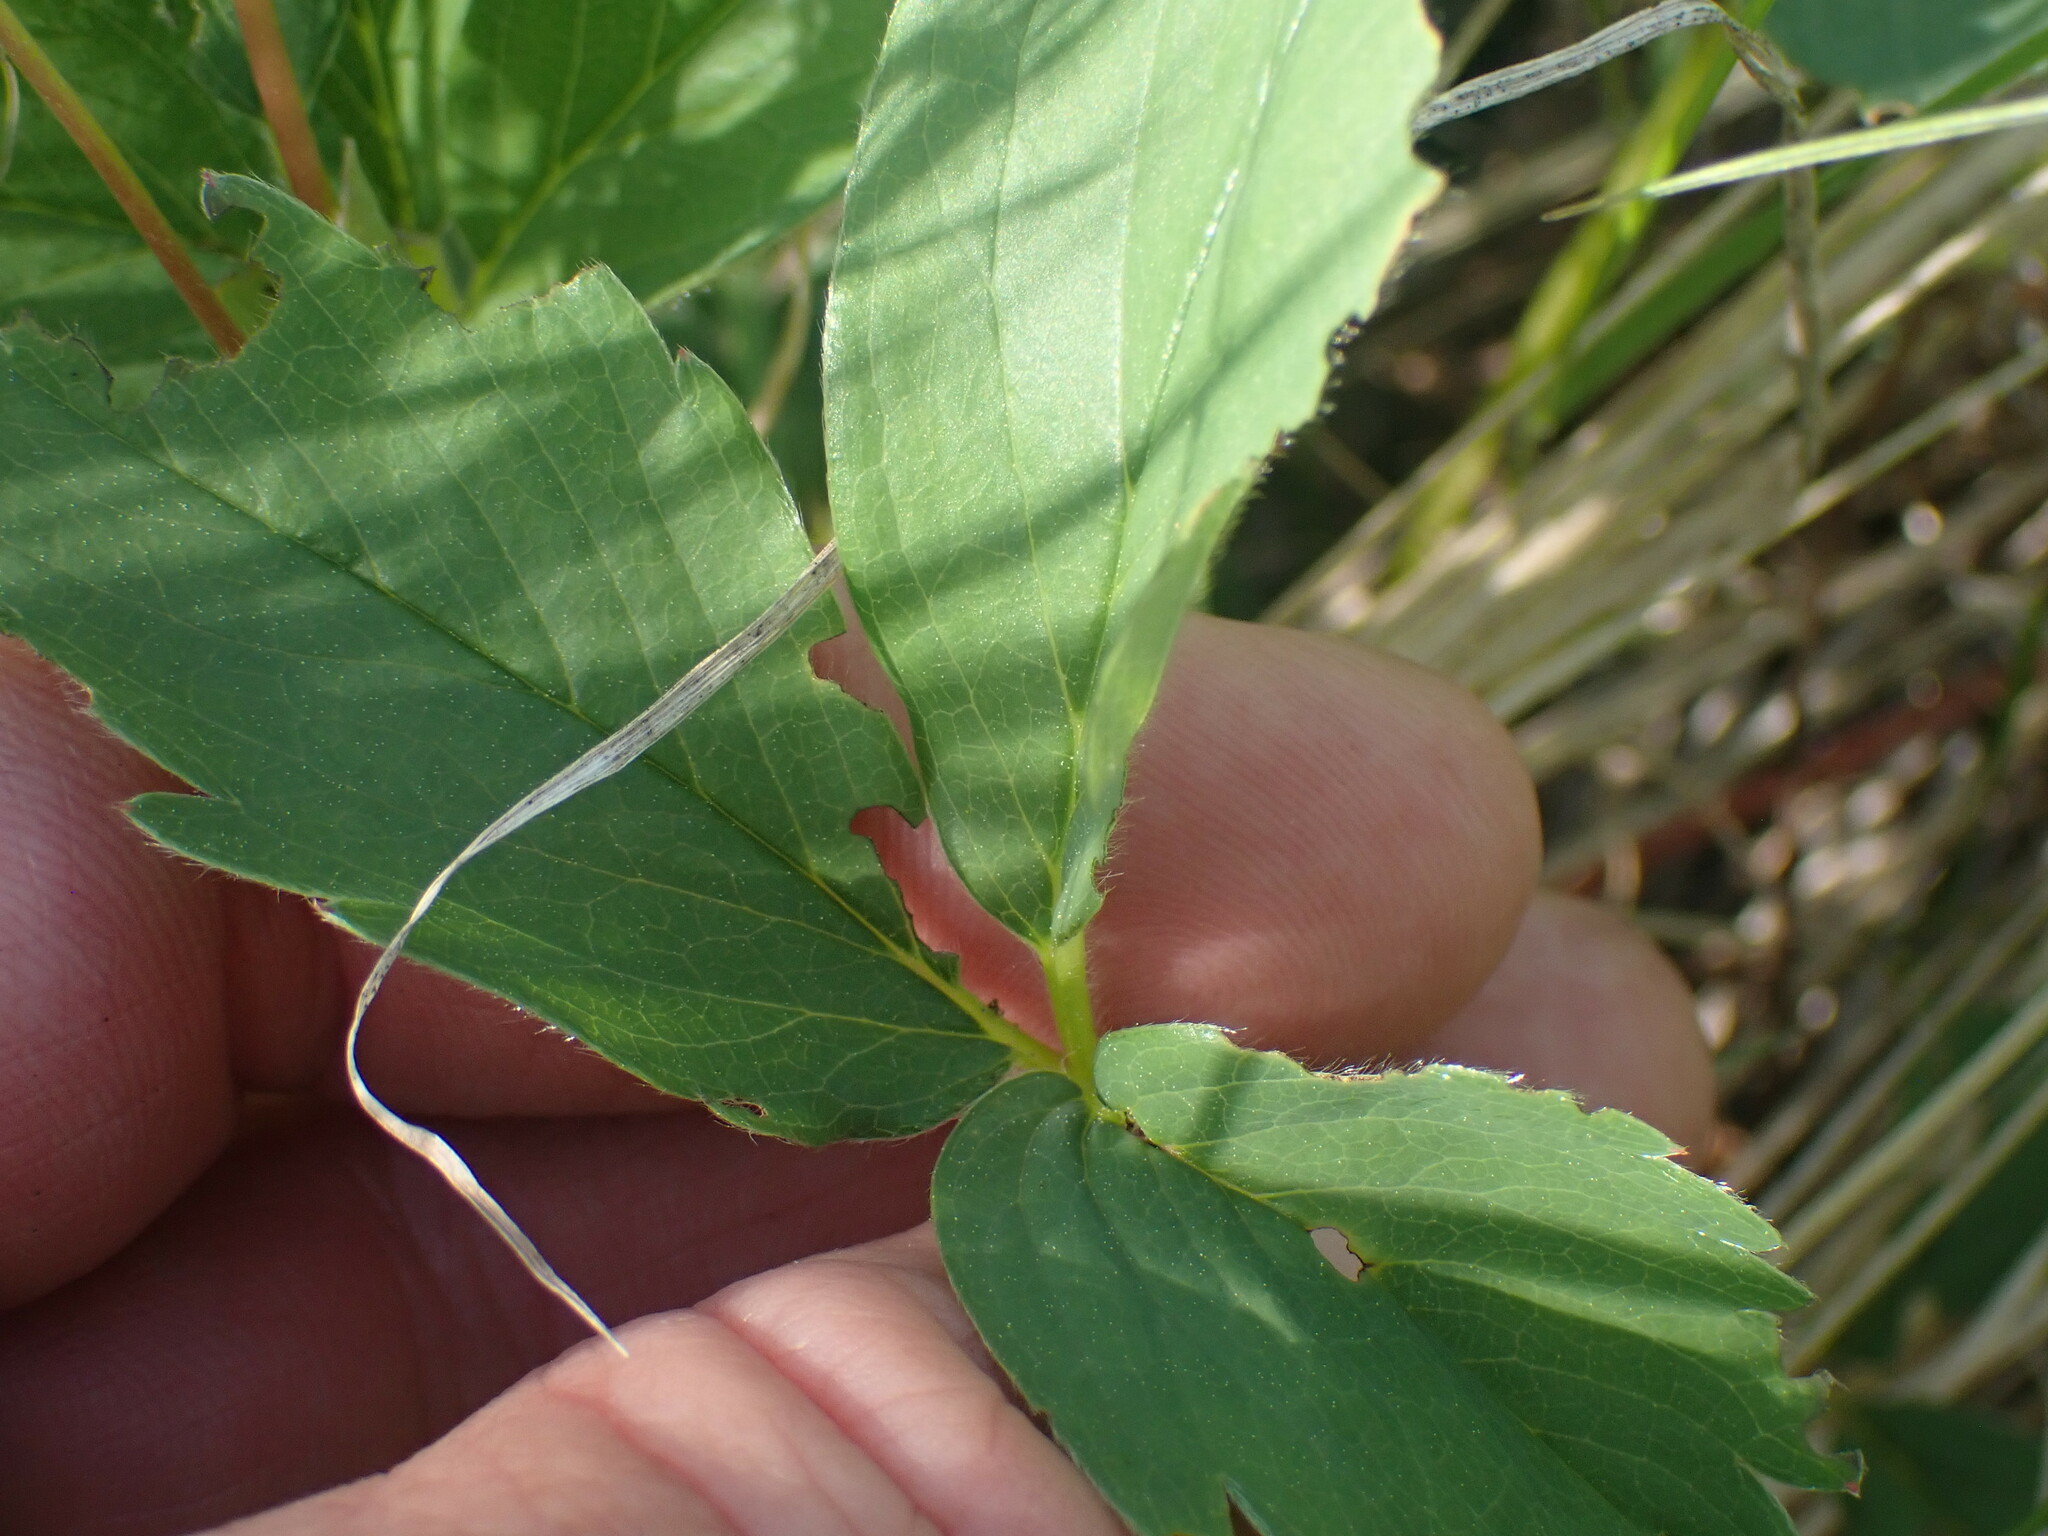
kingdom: Plantae
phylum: Tracheophyta
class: Magnoliopsida
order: Rosales
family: Rosaceae
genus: Fragaria
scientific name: Fragaria virginiana
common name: Thickleaved wild strawberry
